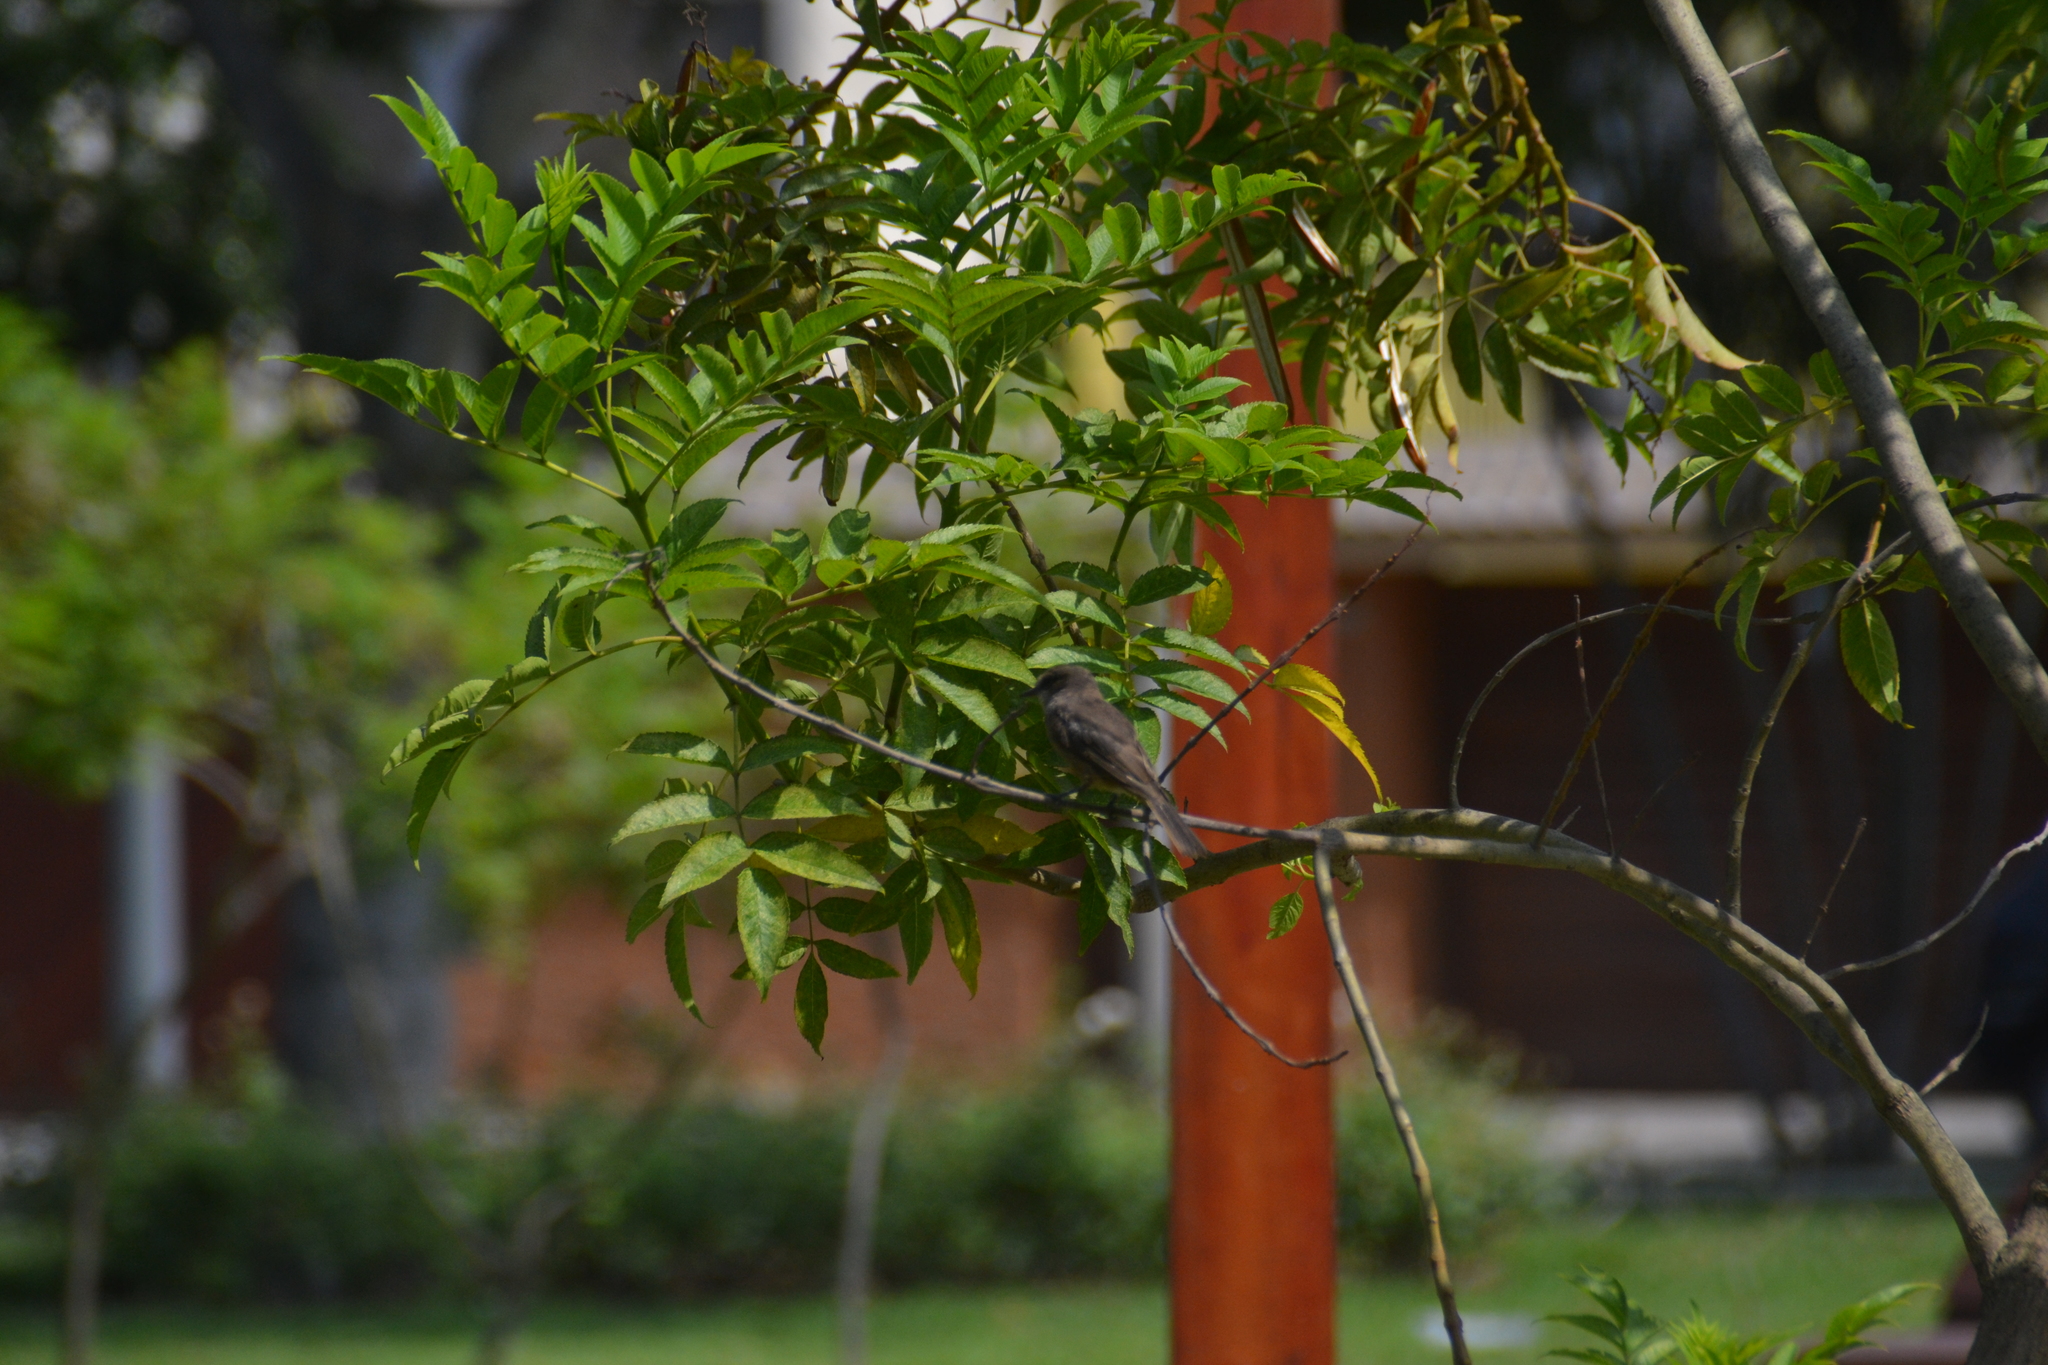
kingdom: Animalia
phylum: Chordata
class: Aves
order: Passeriformes
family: Tyrannidae
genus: Pyrocephalus
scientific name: Pyrocephalus rubinus
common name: Vermilion flycatcher
